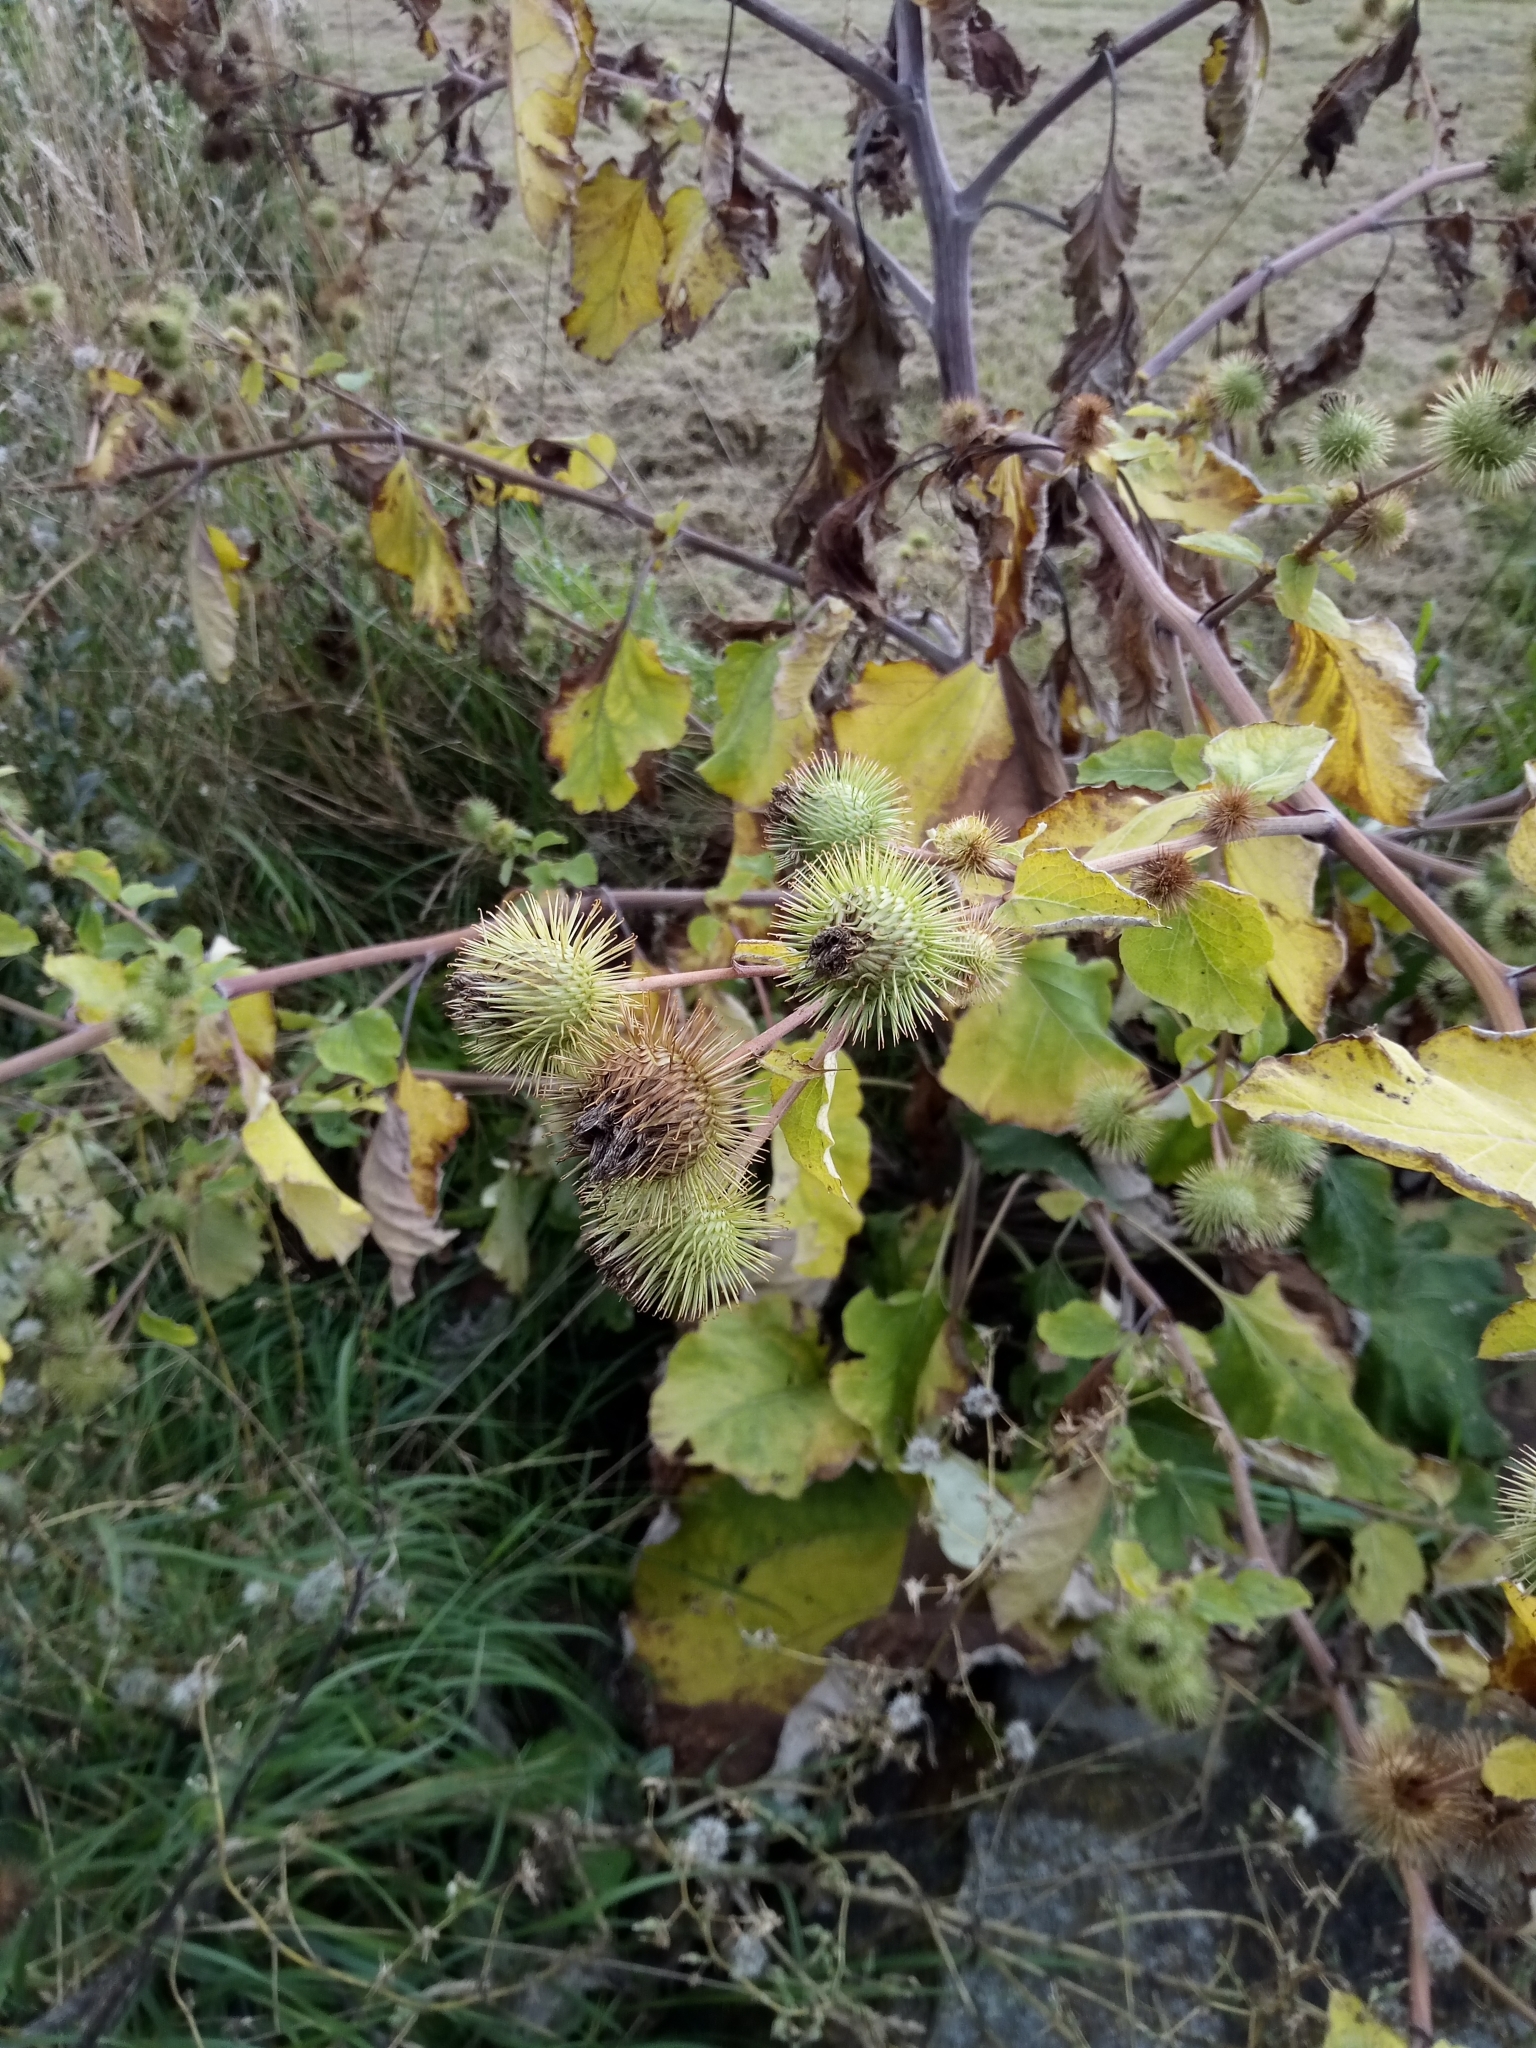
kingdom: Plantae
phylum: Tracheophyta
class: Magnoliopsida
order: Asterales
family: Asteraceae
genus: Arctium
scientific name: Arctium lappa
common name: Greater burdock
